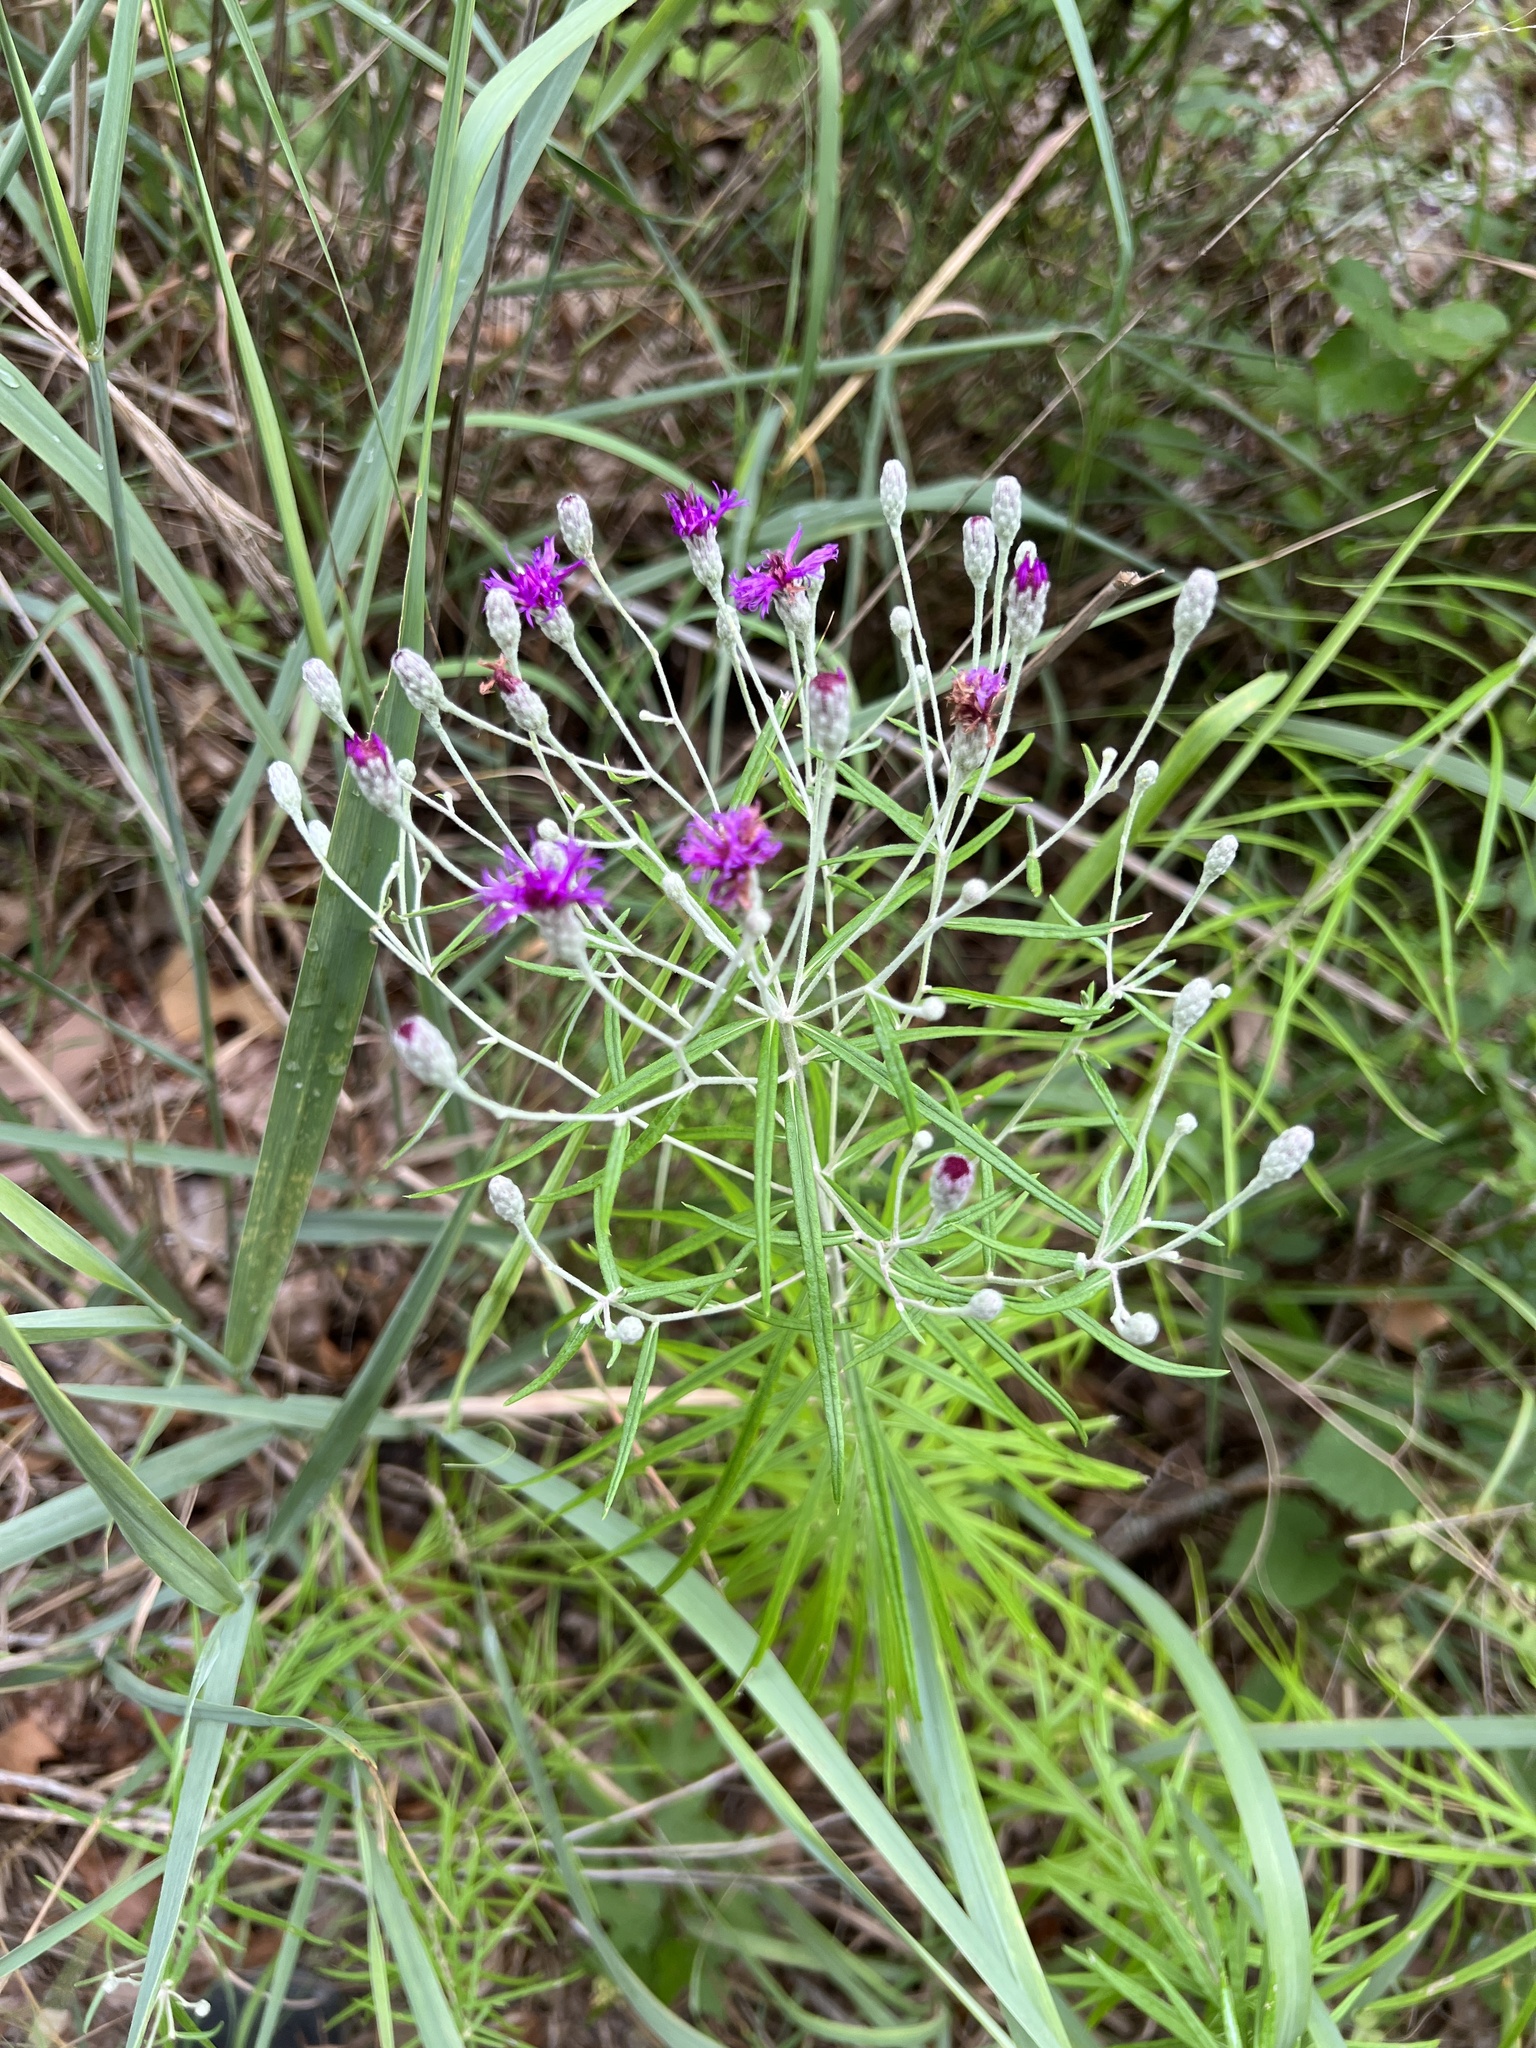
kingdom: Plantae
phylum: Tracheophyta
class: Magnoliopsida
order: Asterales
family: Asteraceae
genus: Vernonia
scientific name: Vernonia lindheimeri
